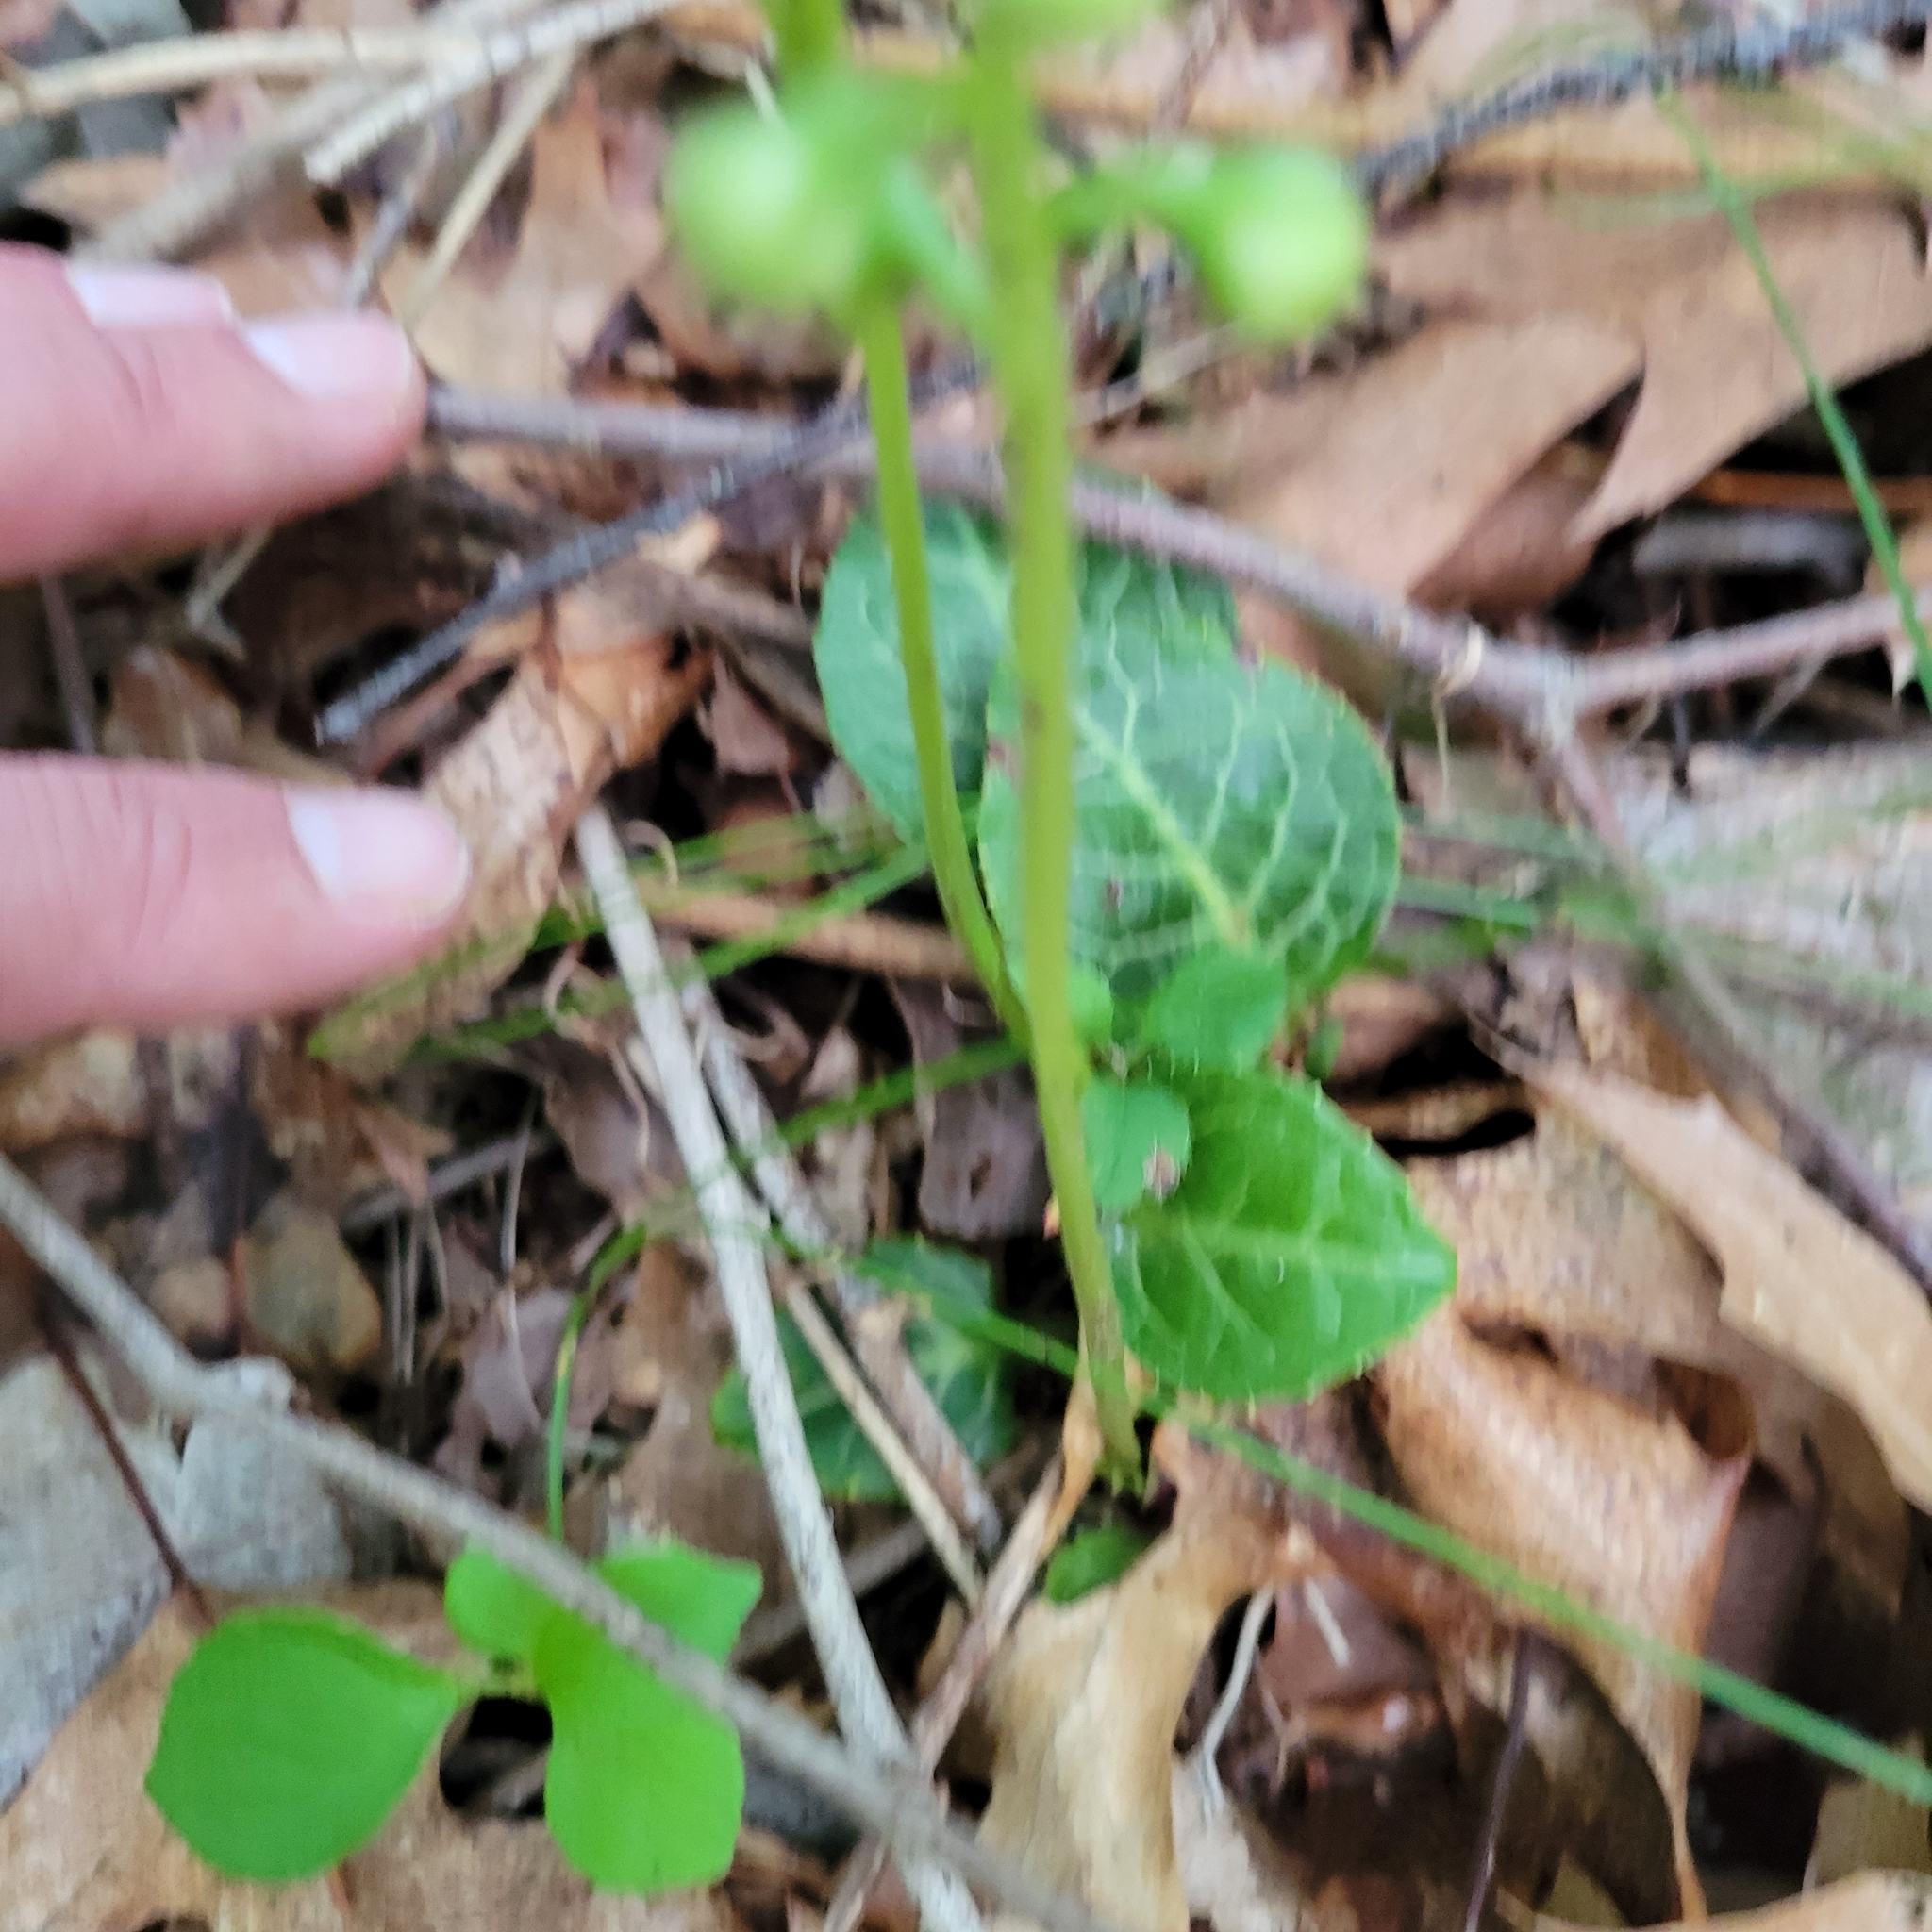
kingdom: Plantae
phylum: Tracheophyta
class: Magnoliopsida
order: Ericales
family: Ericaceae
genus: Pyrola
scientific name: Pyrola americana
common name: American wintergreen
